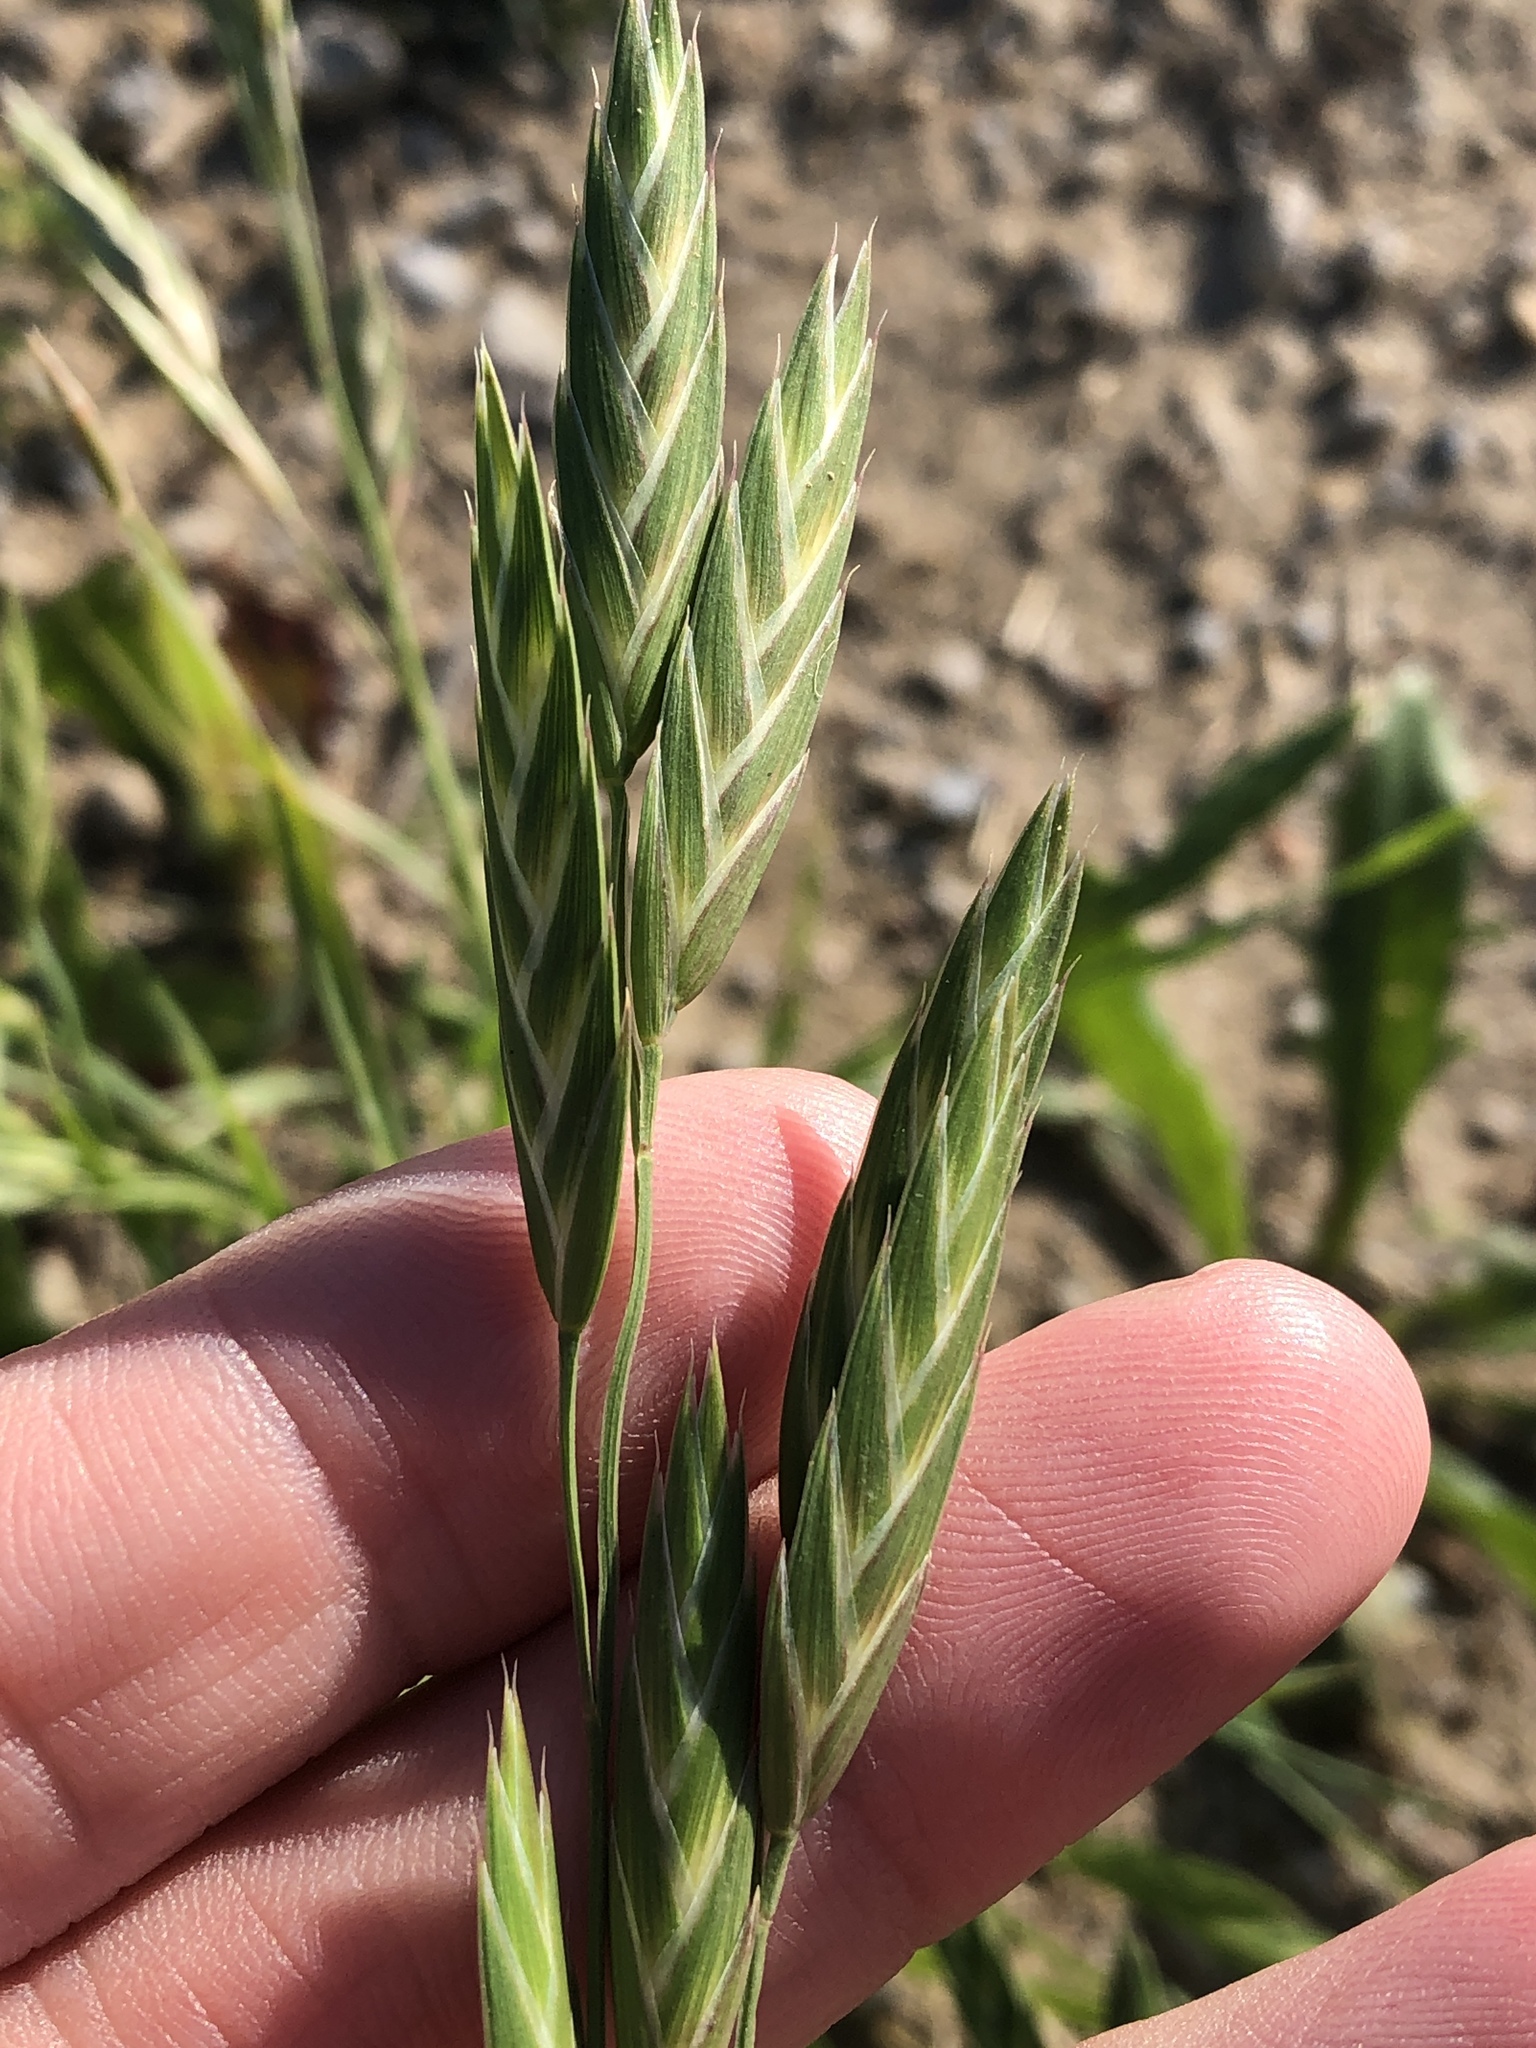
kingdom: Plantae
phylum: Tracheophyta
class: Liliopsida
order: Poales
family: Poaceae
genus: Bromus
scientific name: Bromus catharticus
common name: Rescuegrass
